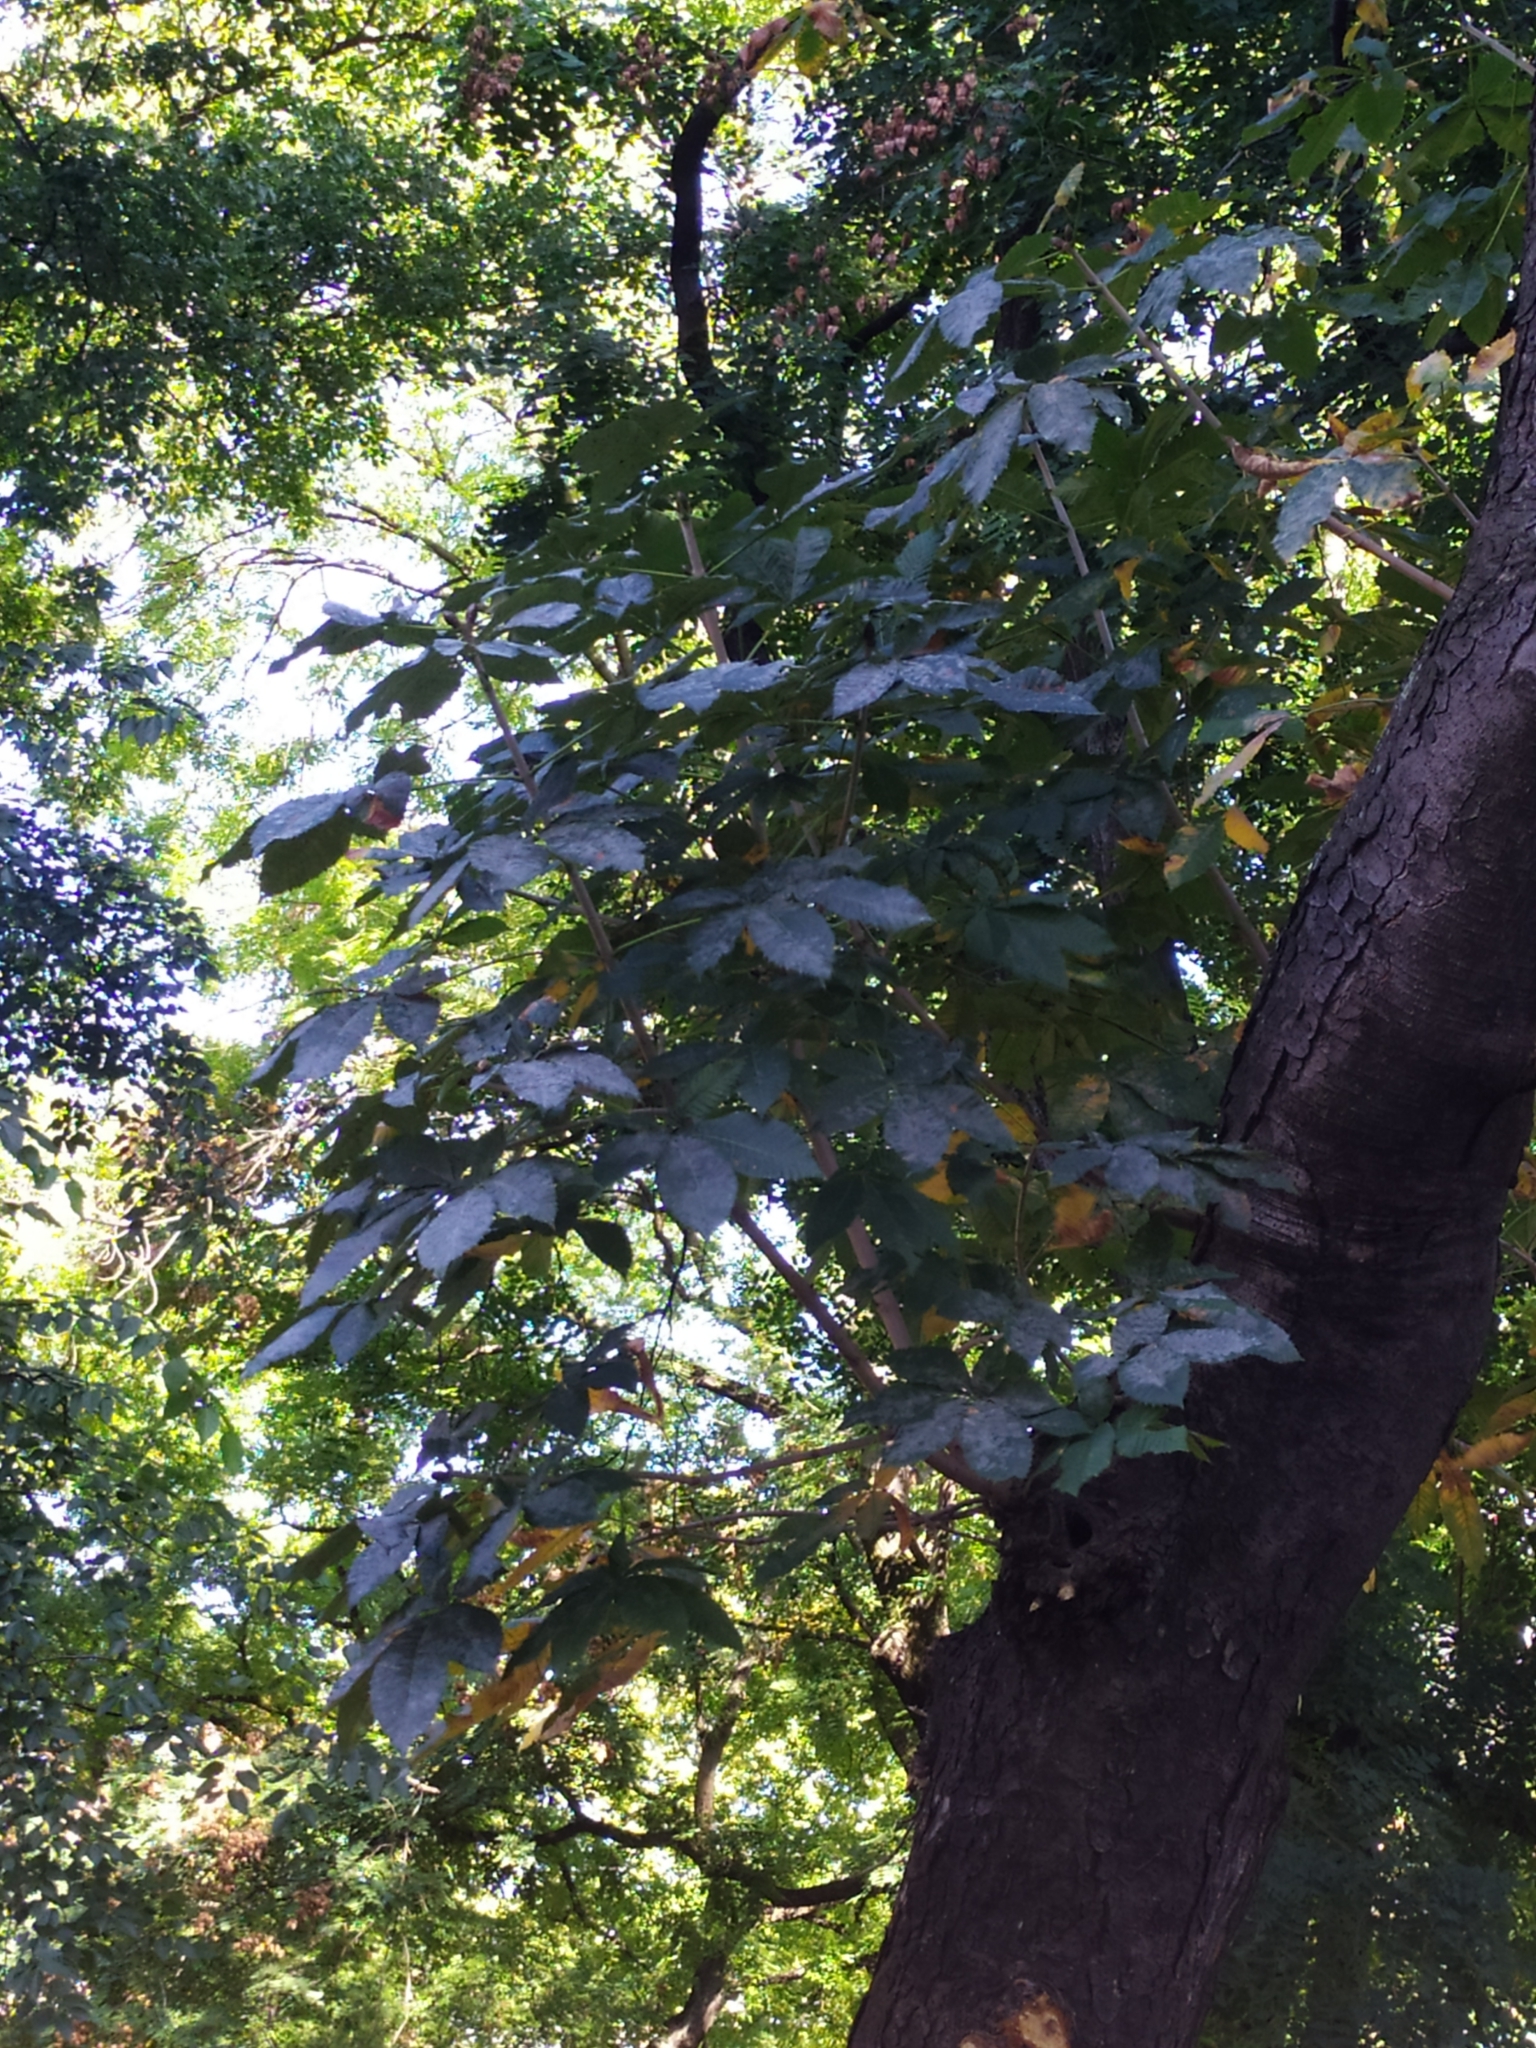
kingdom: Fungi
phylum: Ascomycota
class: Leotiomycetes
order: Helotiales
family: Erysiphaceae
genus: Erysiphe
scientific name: Erysiphe flexuosa
